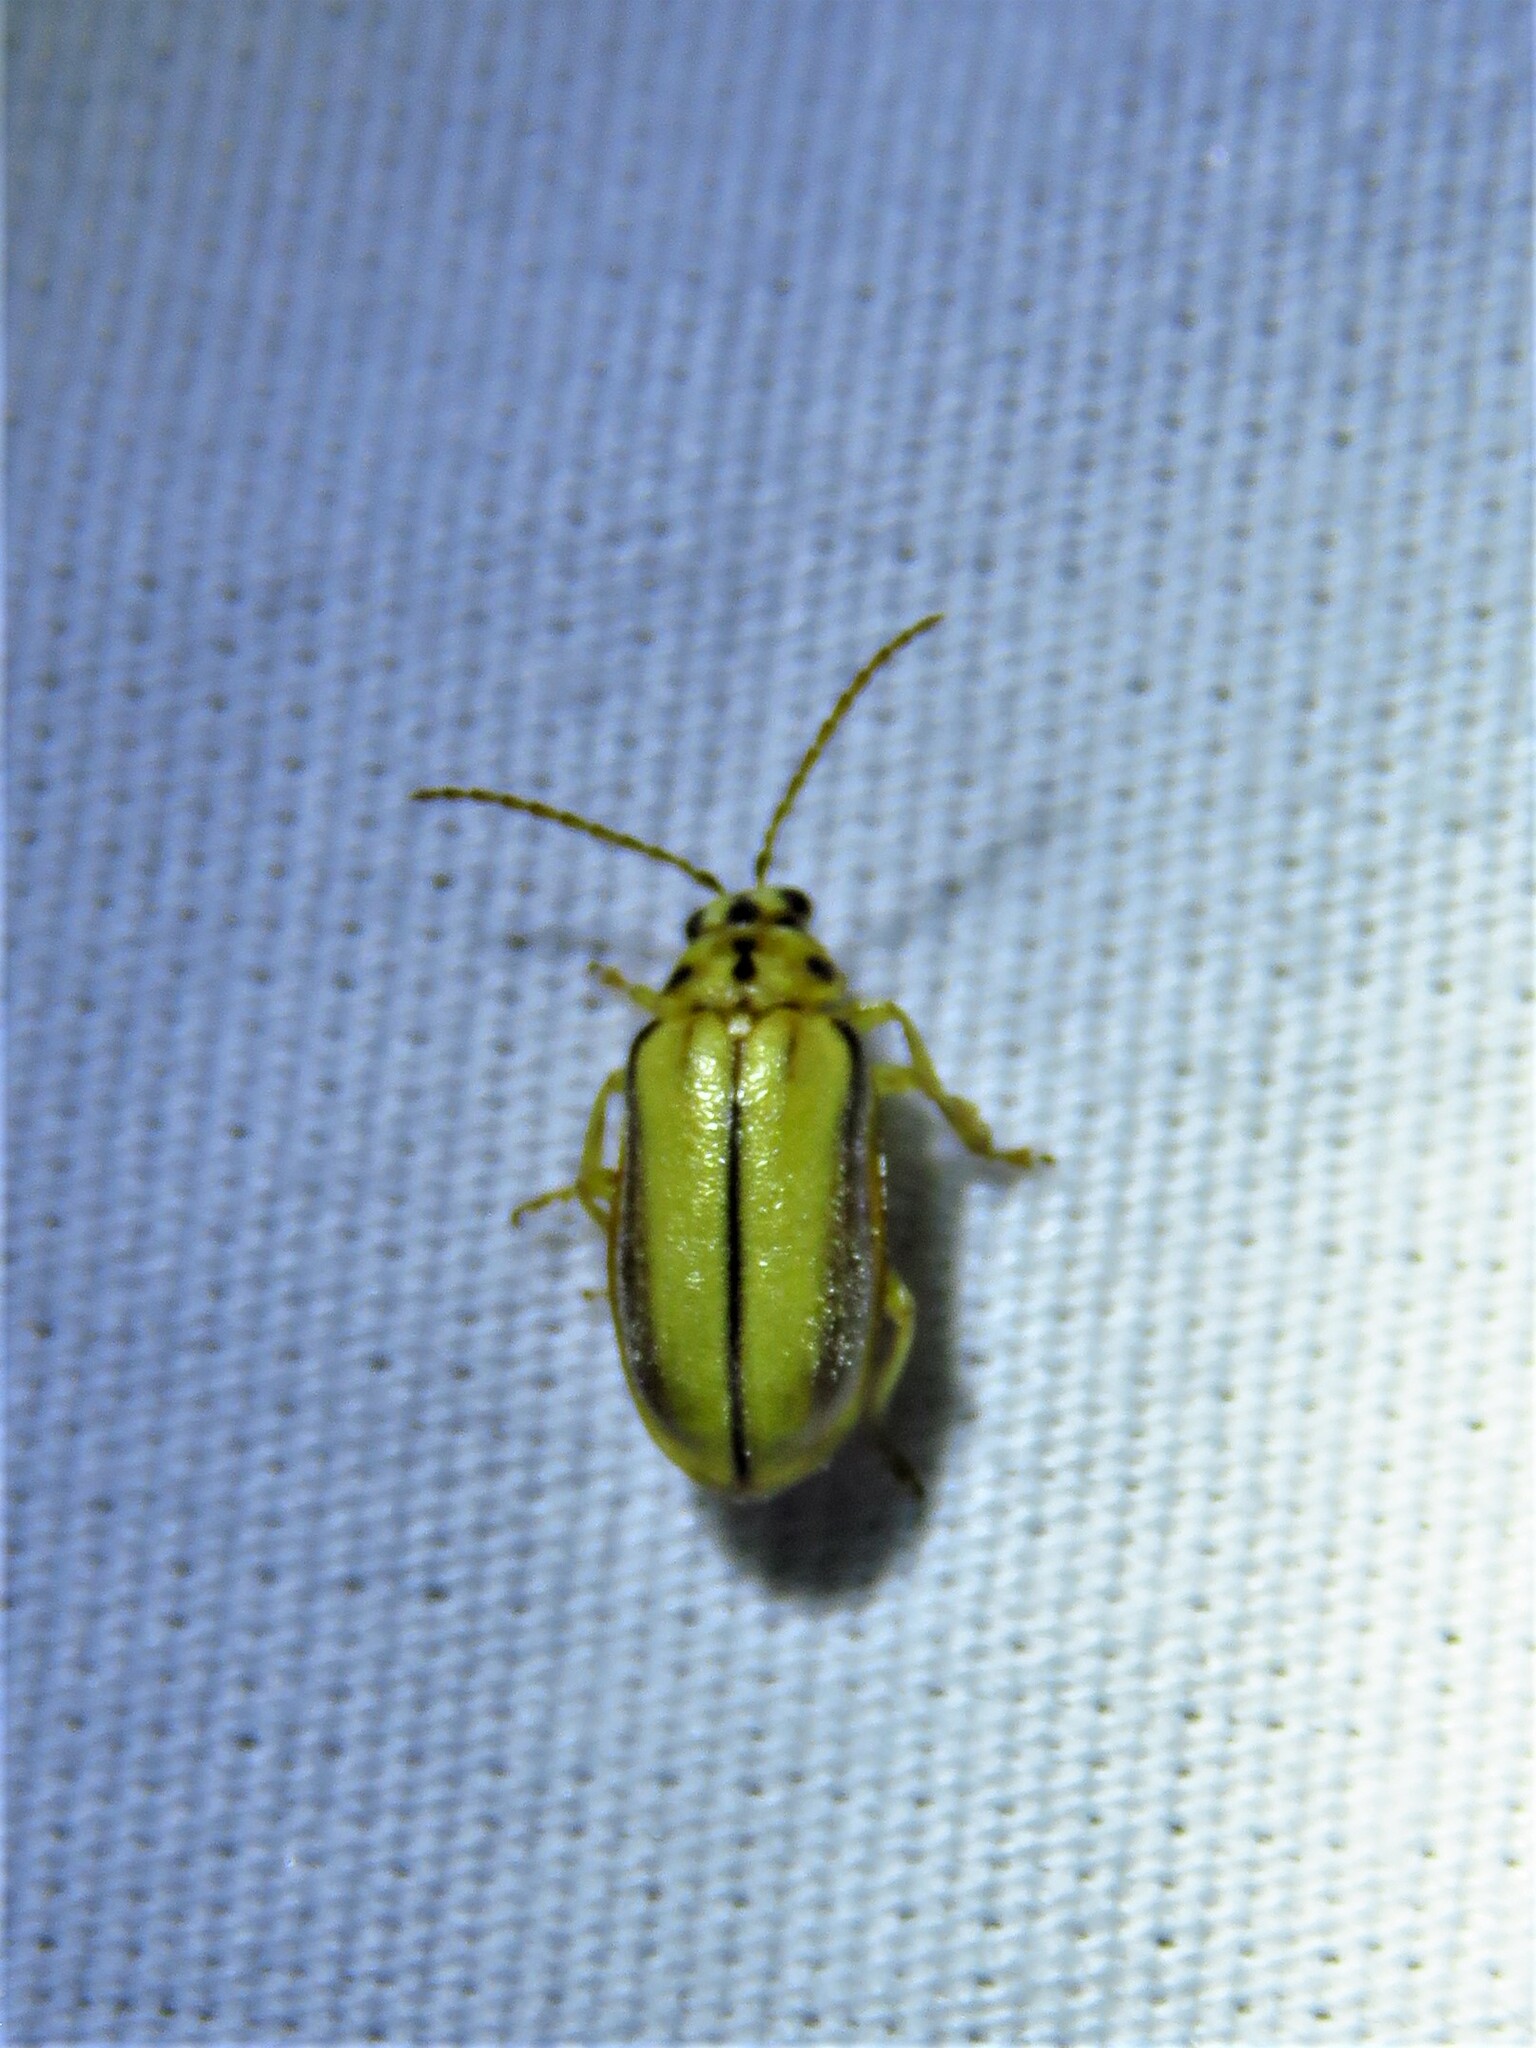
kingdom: Animalia
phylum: Arthropoda
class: Insecta
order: Coleoptera
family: Chrysomelidae
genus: Xanthogaleruca
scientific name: Xanthogaleruca luteola
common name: Elm leaf beetle
